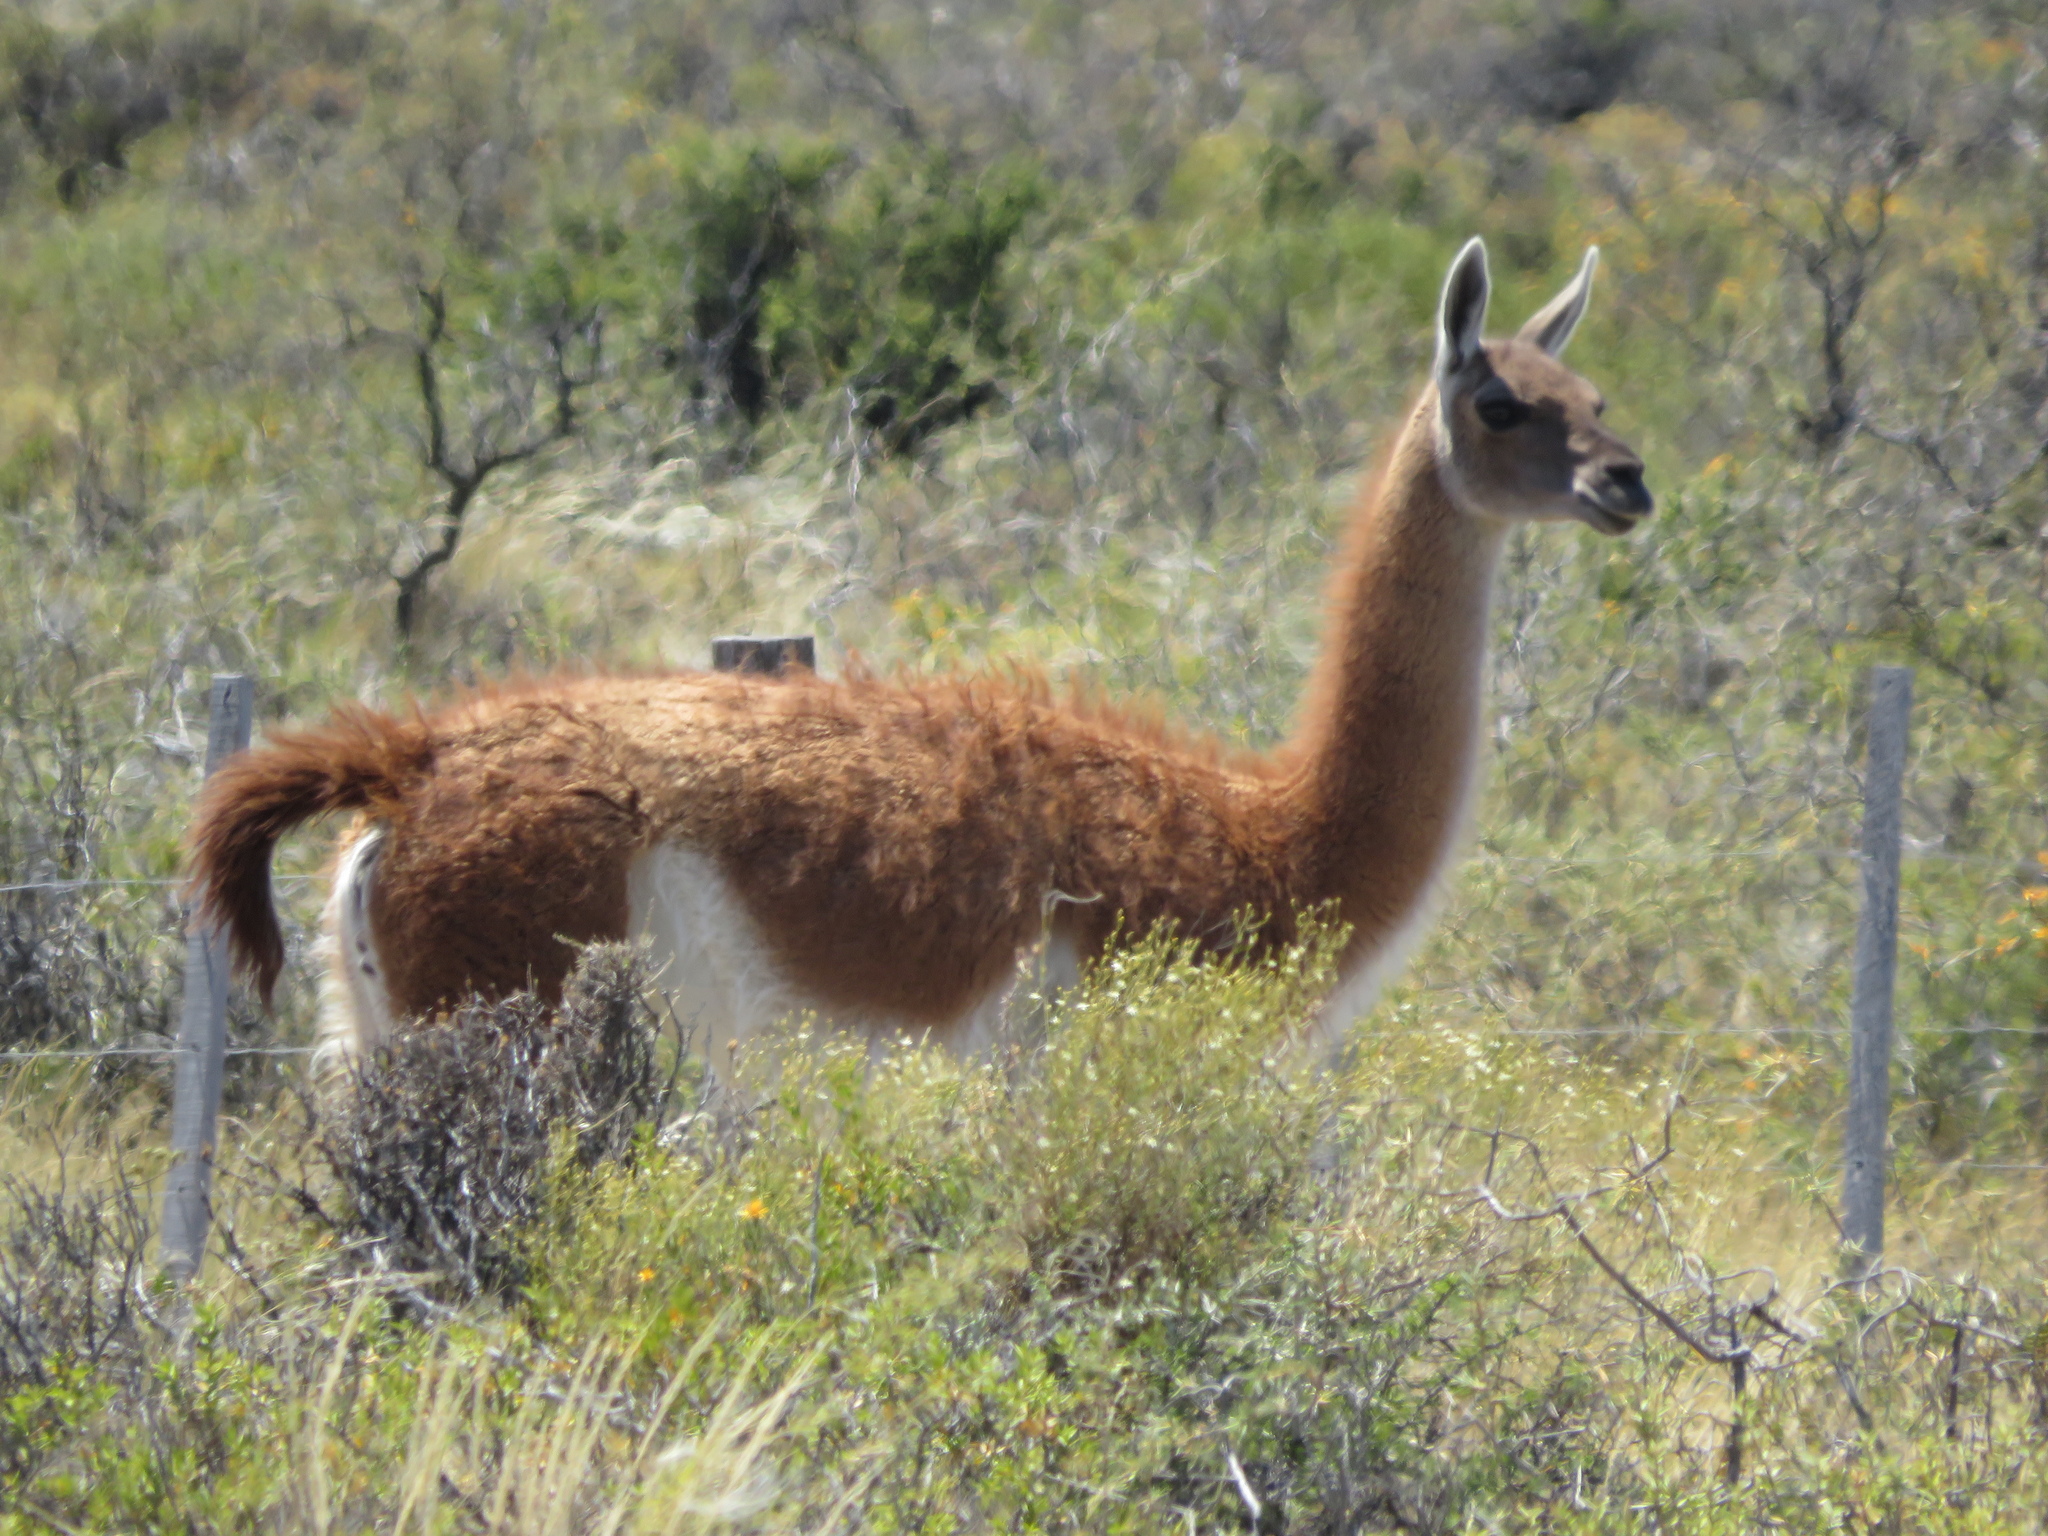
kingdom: Animalia
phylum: Chordata
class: Mammalia
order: Artiodactyla
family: Camelidae
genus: Lama
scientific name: Lama glama
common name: Llama
